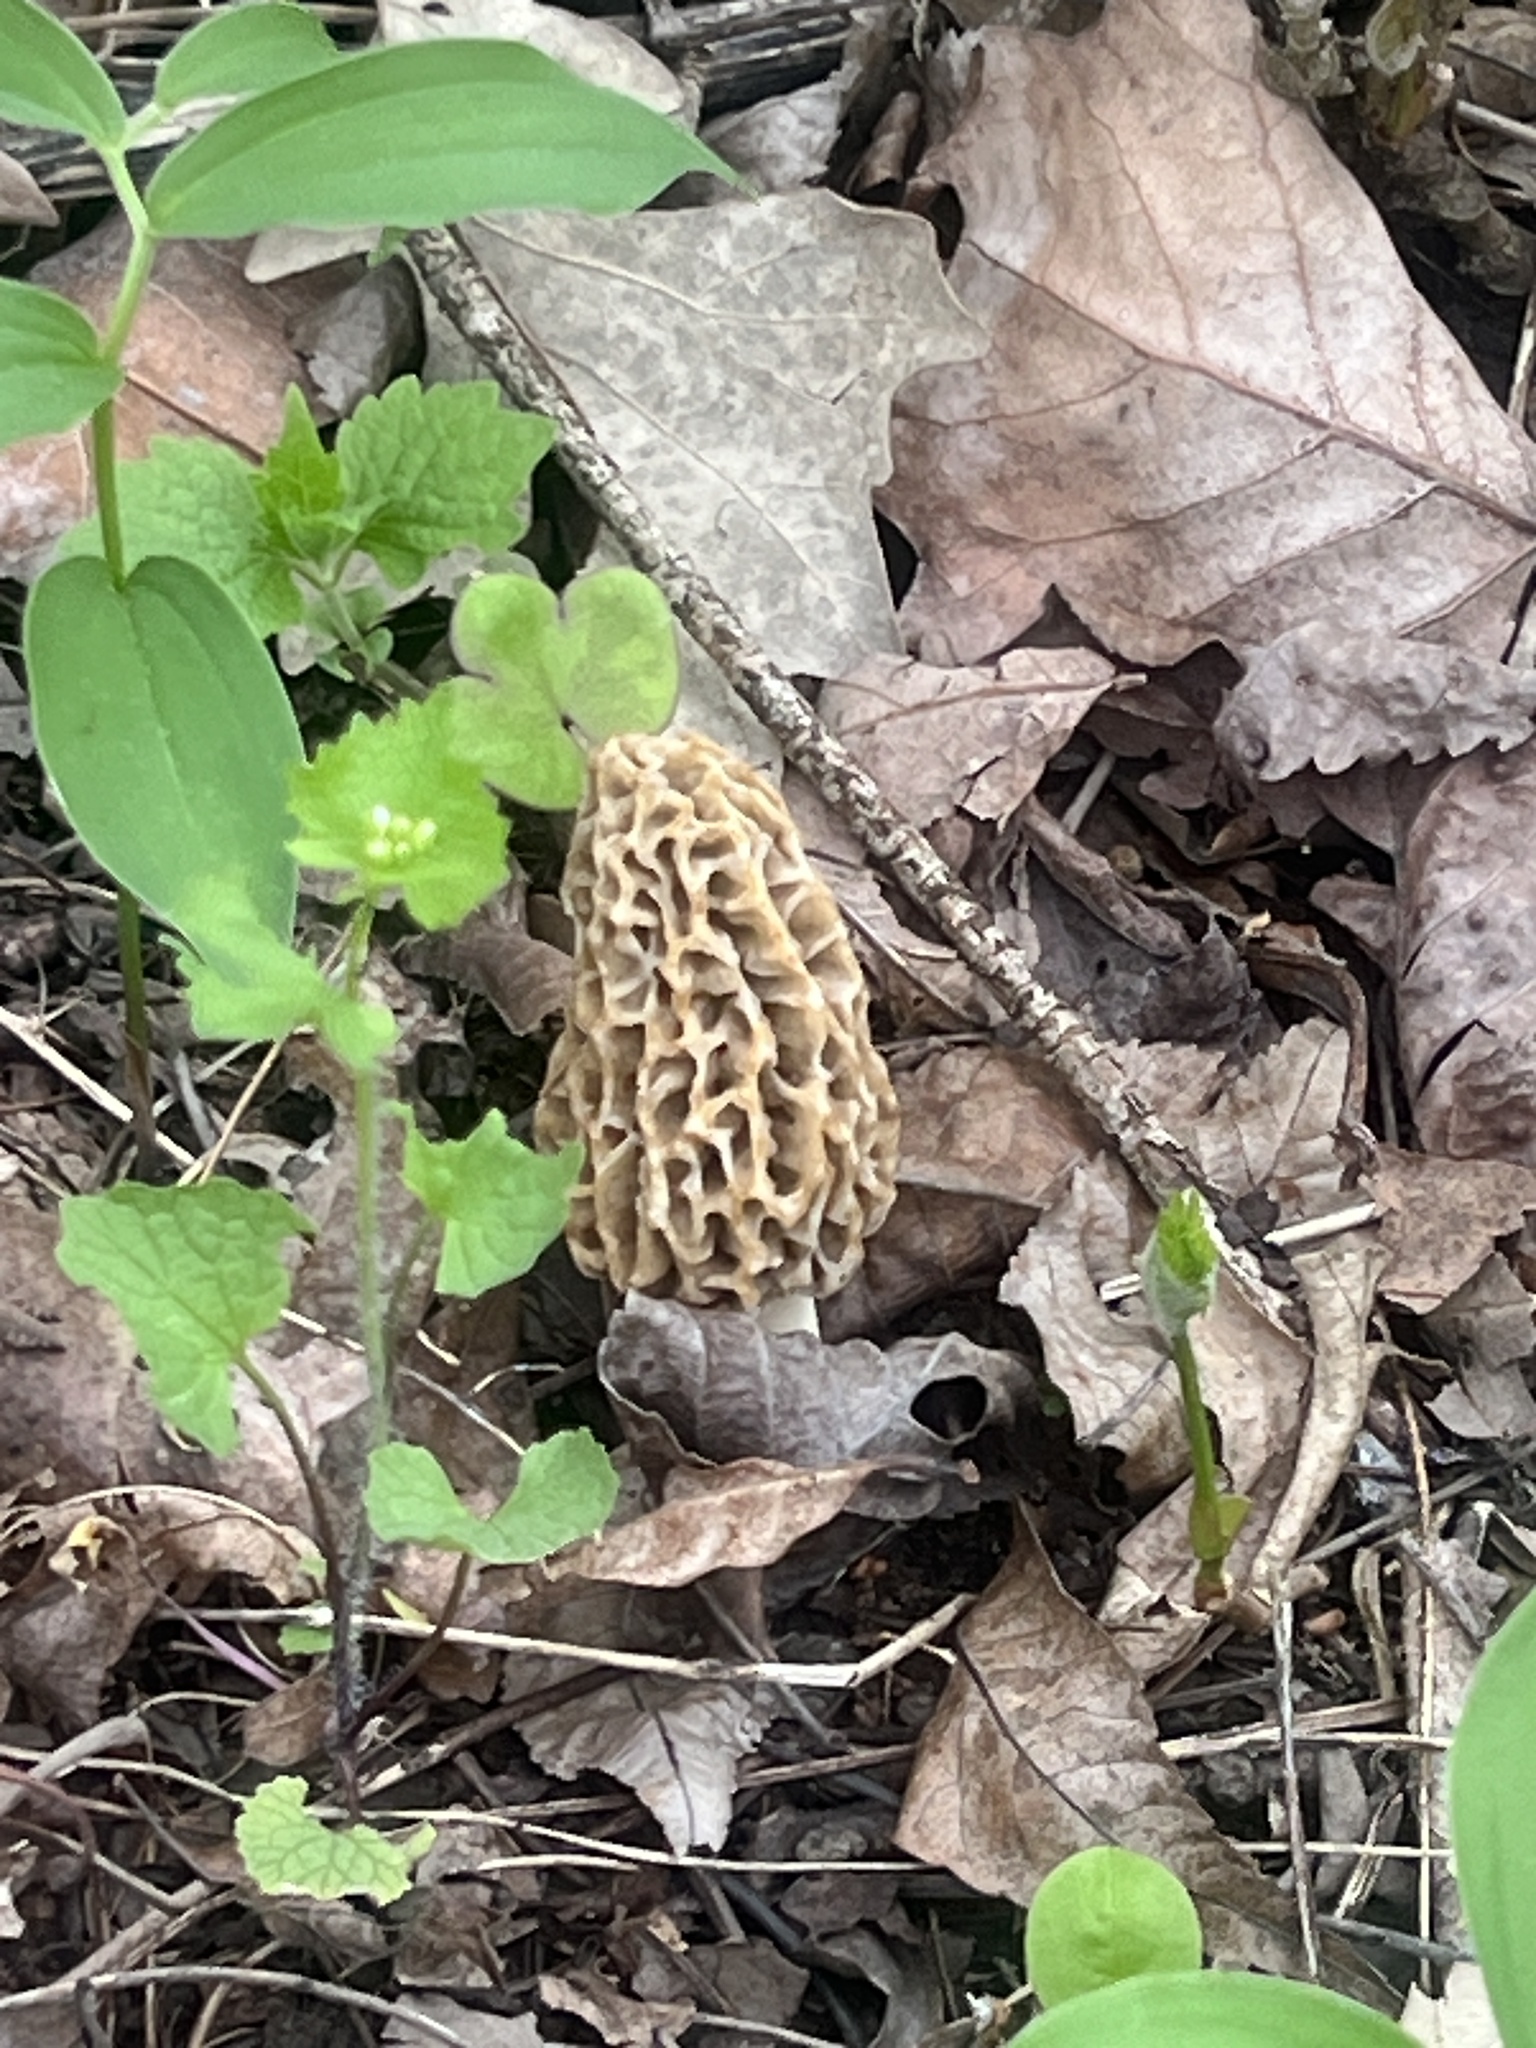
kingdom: Fungi
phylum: Ascomycota
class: Pezizomycetes
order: Pezizales
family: Morchellaceae
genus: Morchella
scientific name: Morchella americana
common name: White morel
